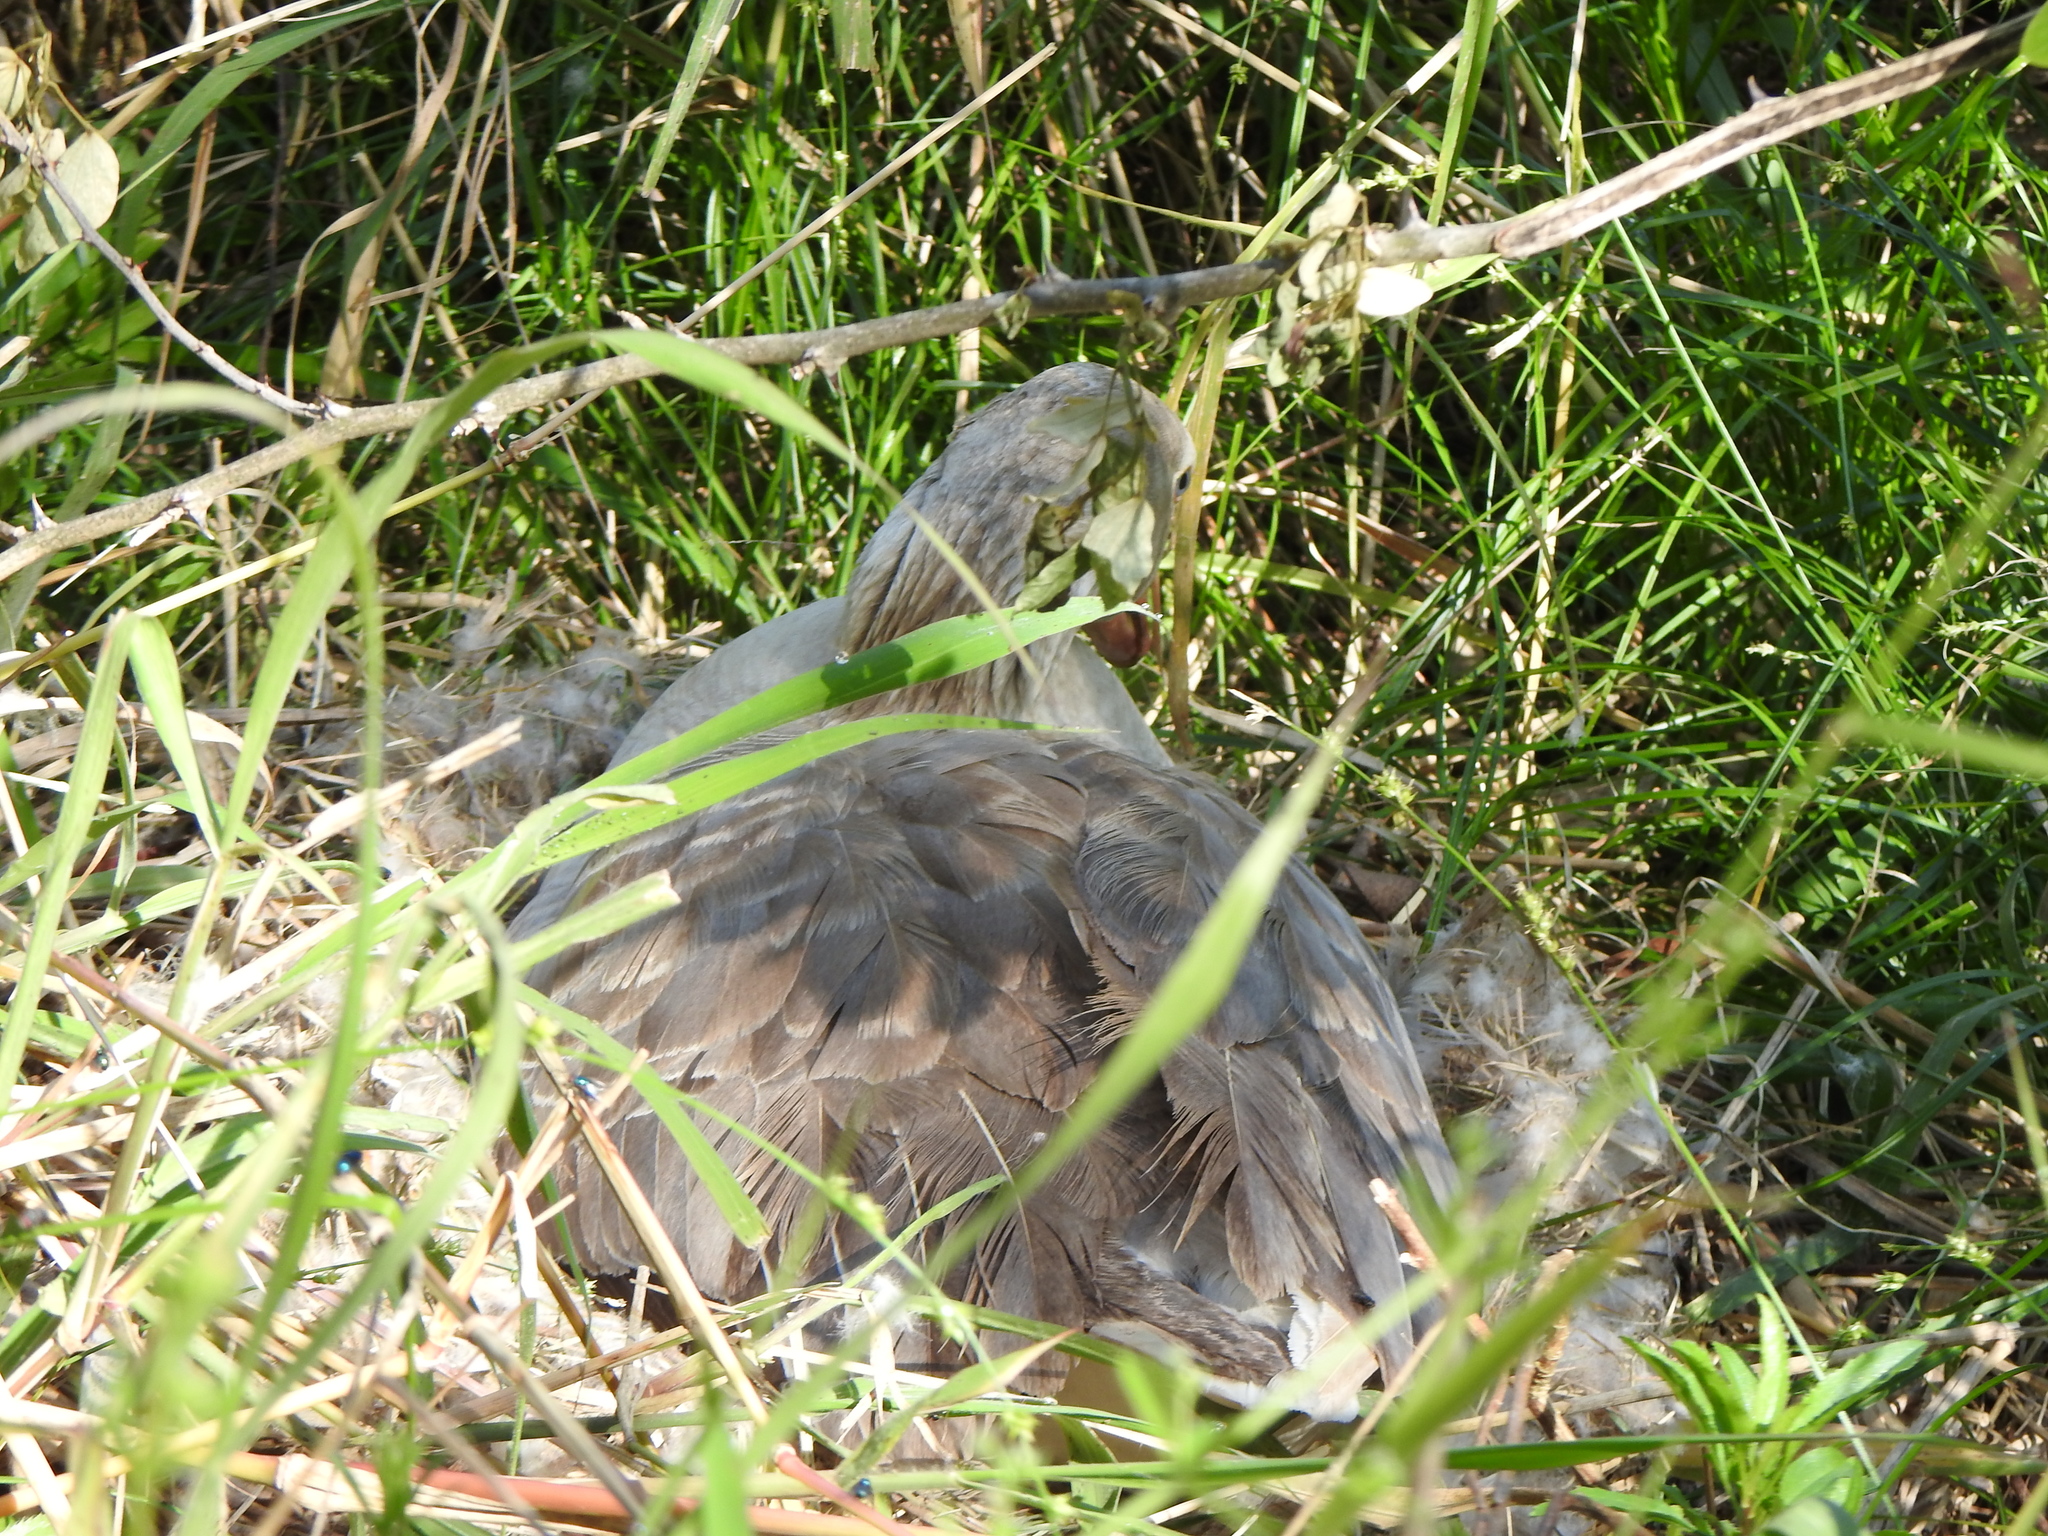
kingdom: Animalia
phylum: Chordata
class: Aves
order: Anseriformes
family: Anatidae
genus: Anser
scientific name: Anser anser
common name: Greylag goose
